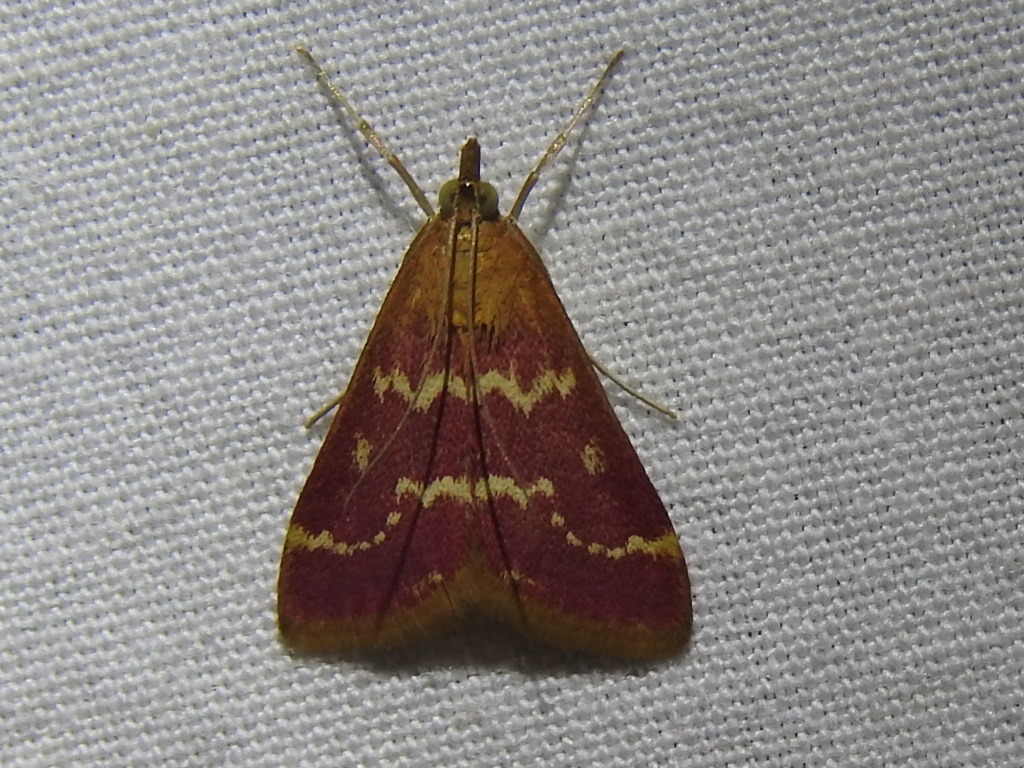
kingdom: Animalia
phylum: Arthropoda
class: Insecta
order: Lepidoptera
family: Crambidae
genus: Pyrausta
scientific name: Pyrausta signatalis
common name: Raspberry pyrausta moth
